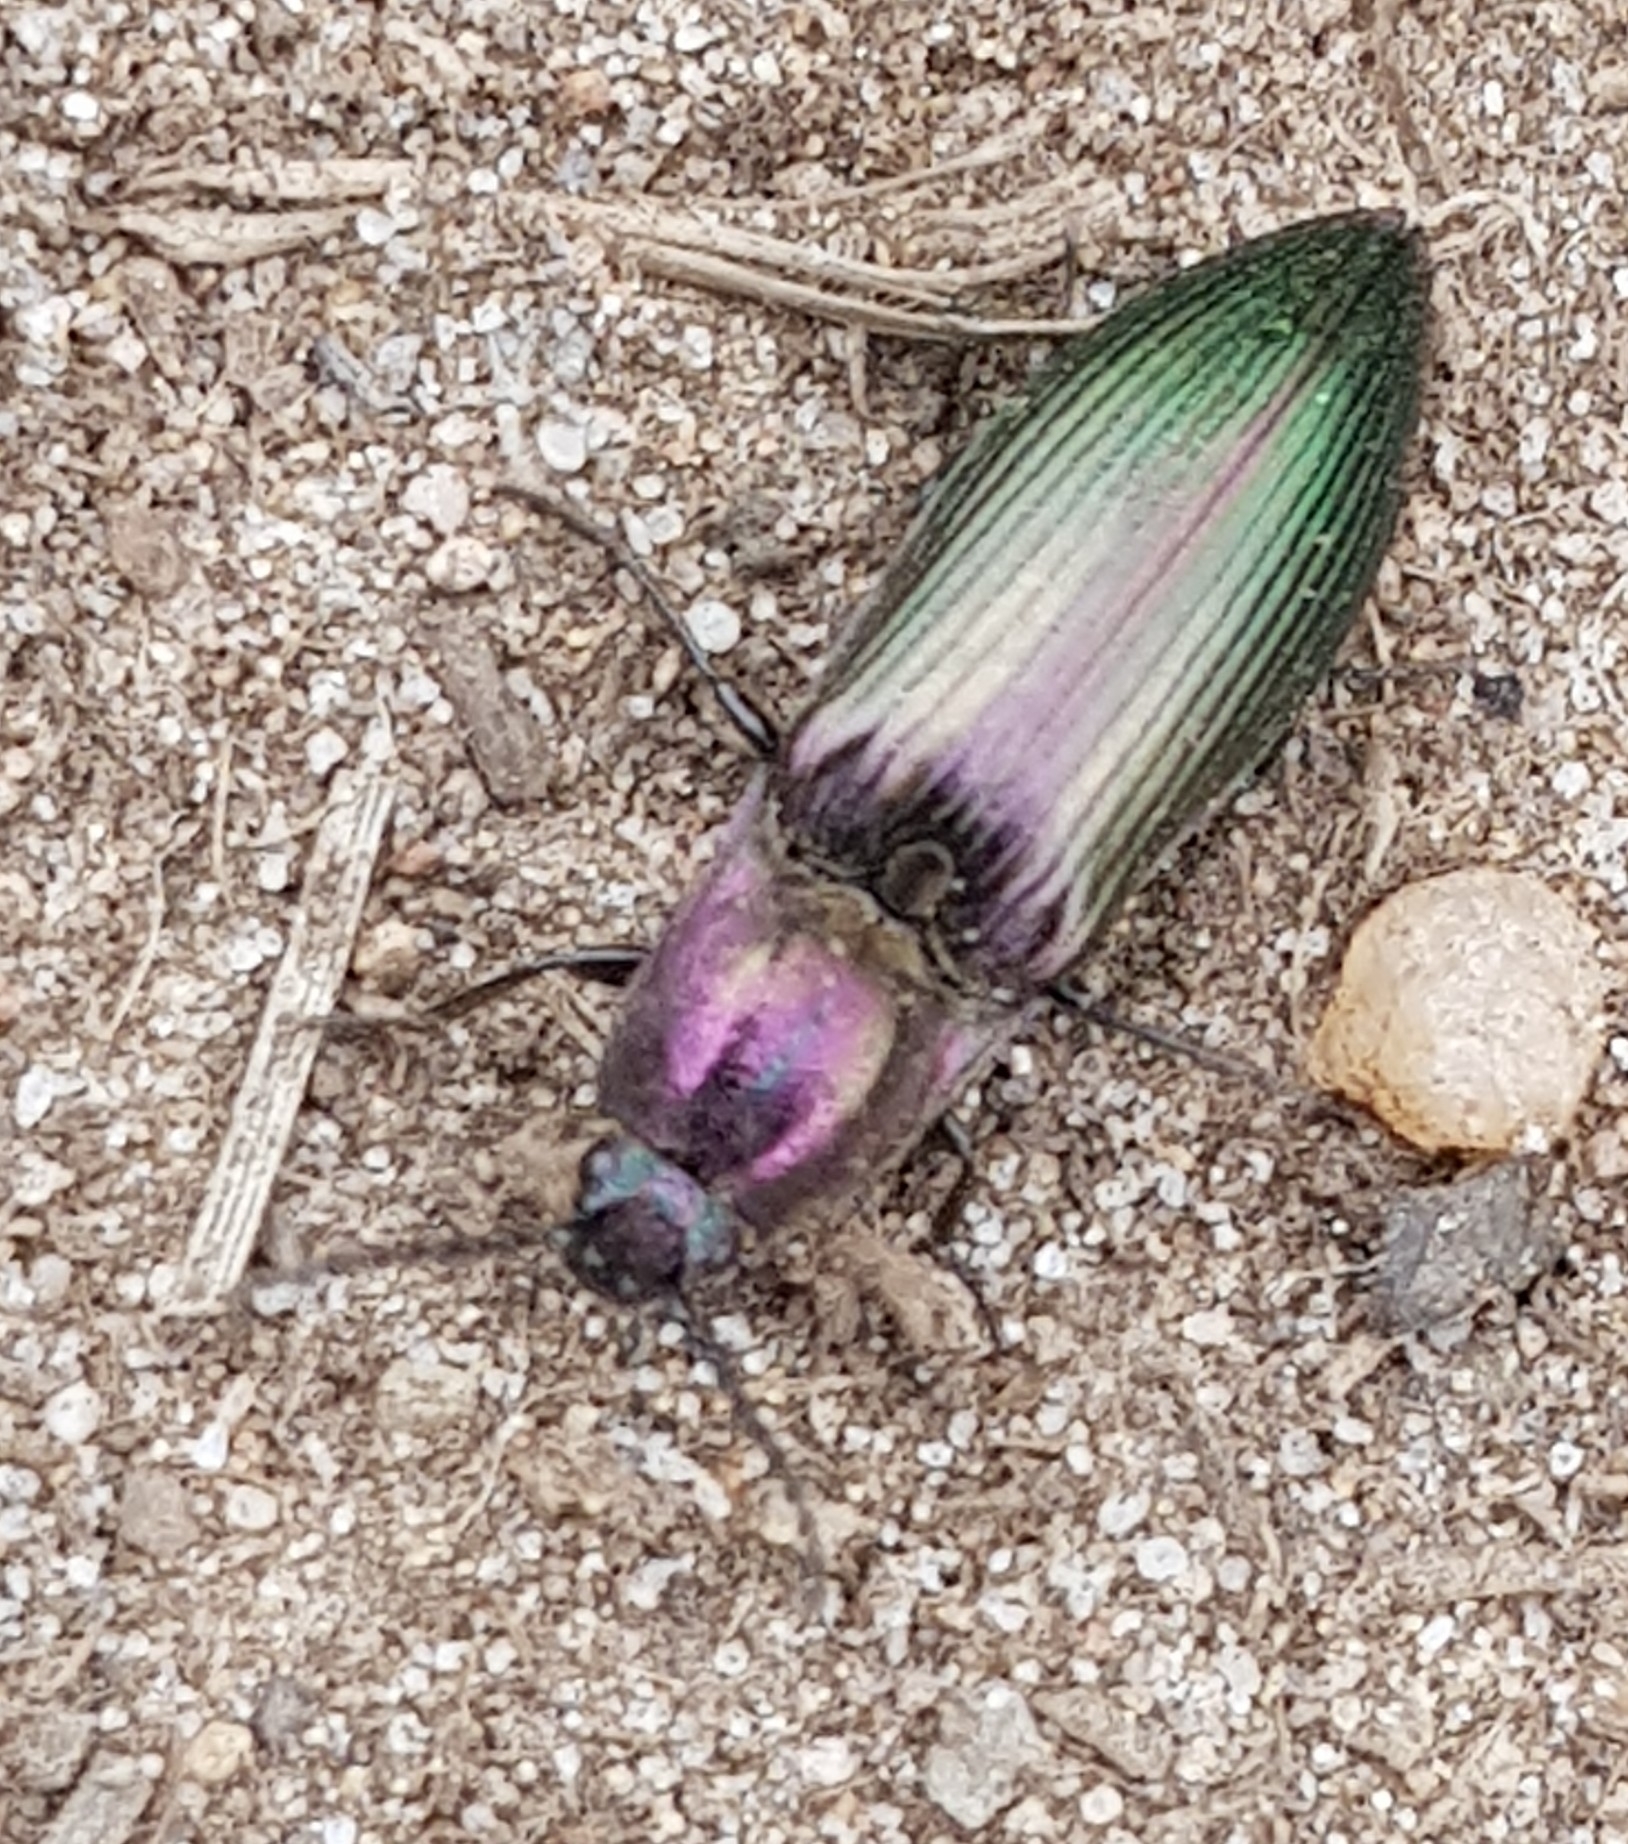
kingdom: Animalia
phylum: Arthropoda
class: Insecta
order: Coleoptera
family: Elateridae
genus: Ctenicera
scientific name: Ctenicera cuprea
